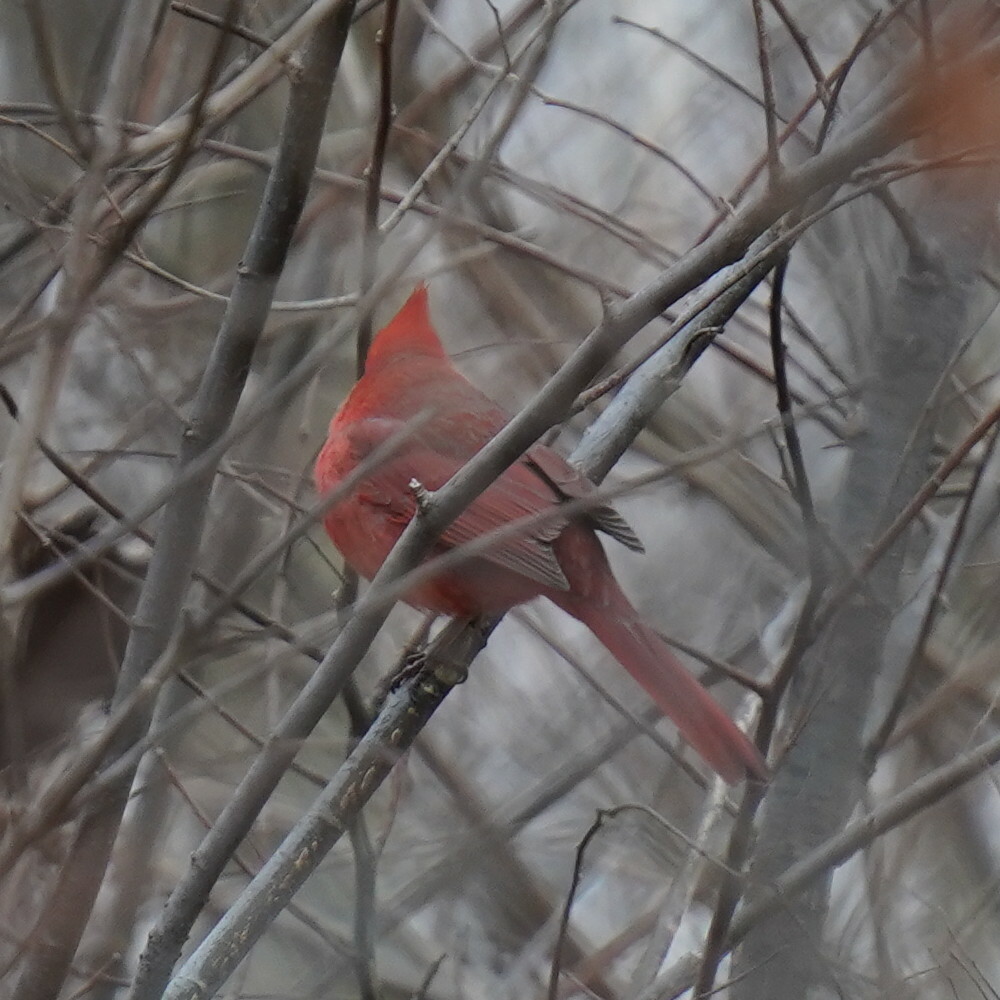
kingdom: Animalia
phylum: Chordata
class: Aves
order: Passeriformes
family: Cardinalidae
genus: Cardinalis
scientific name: Cardinalis cardinalis
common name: Northern cardinal
